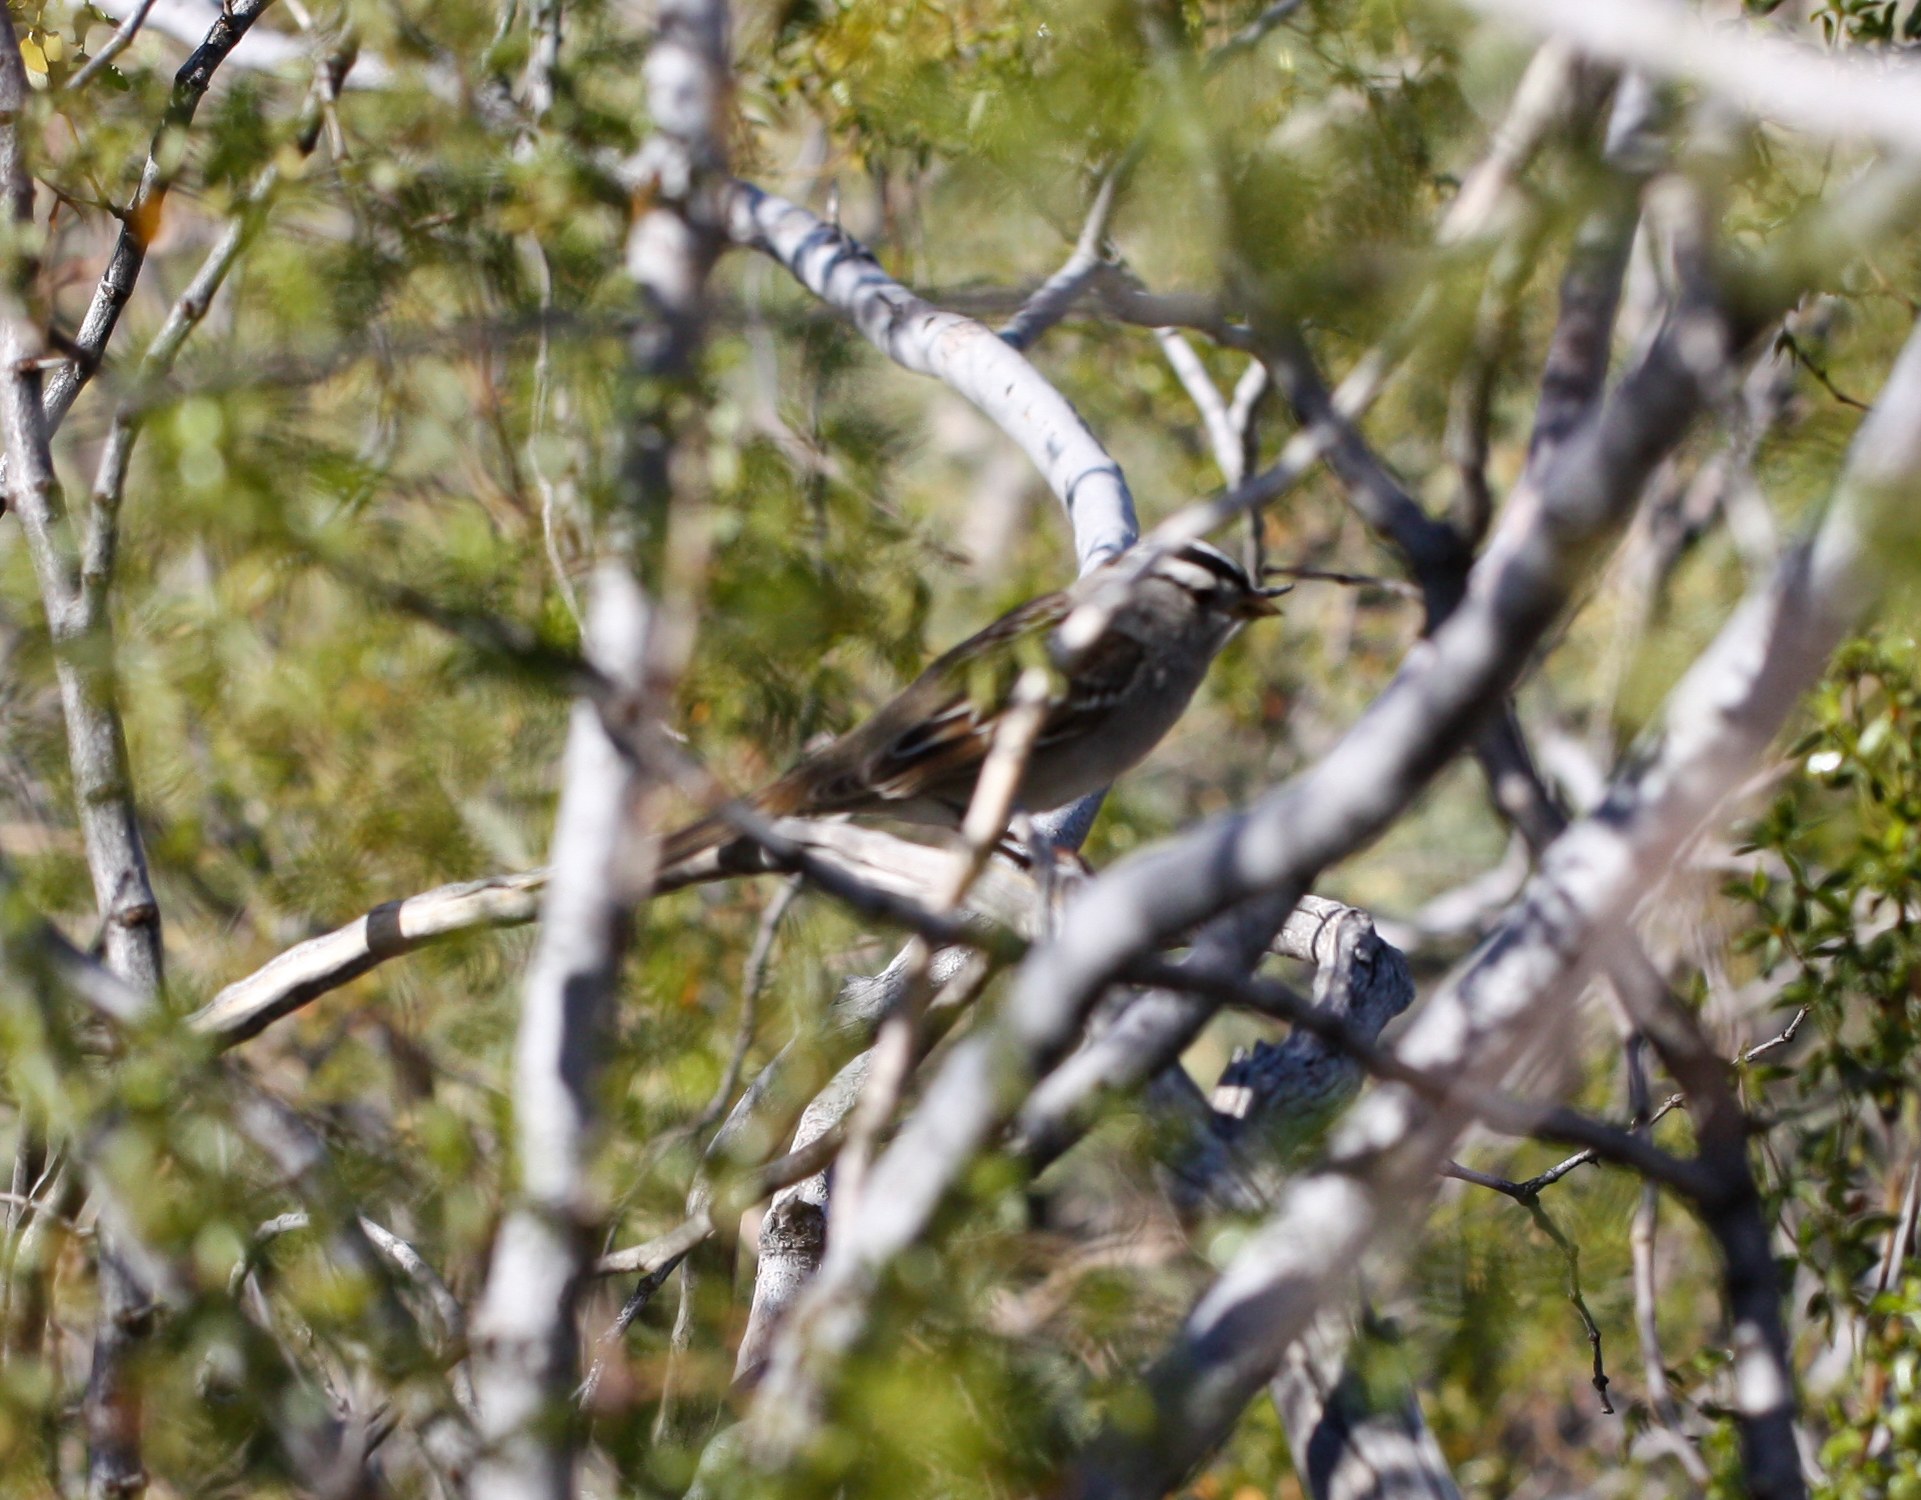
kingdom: Animalia
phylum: Chordata
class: Aves
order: Passeriformes
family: Passerellidae
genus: Zonotrichia
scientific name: Zonotrichia leucophrys
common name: White-crowned sparrow
